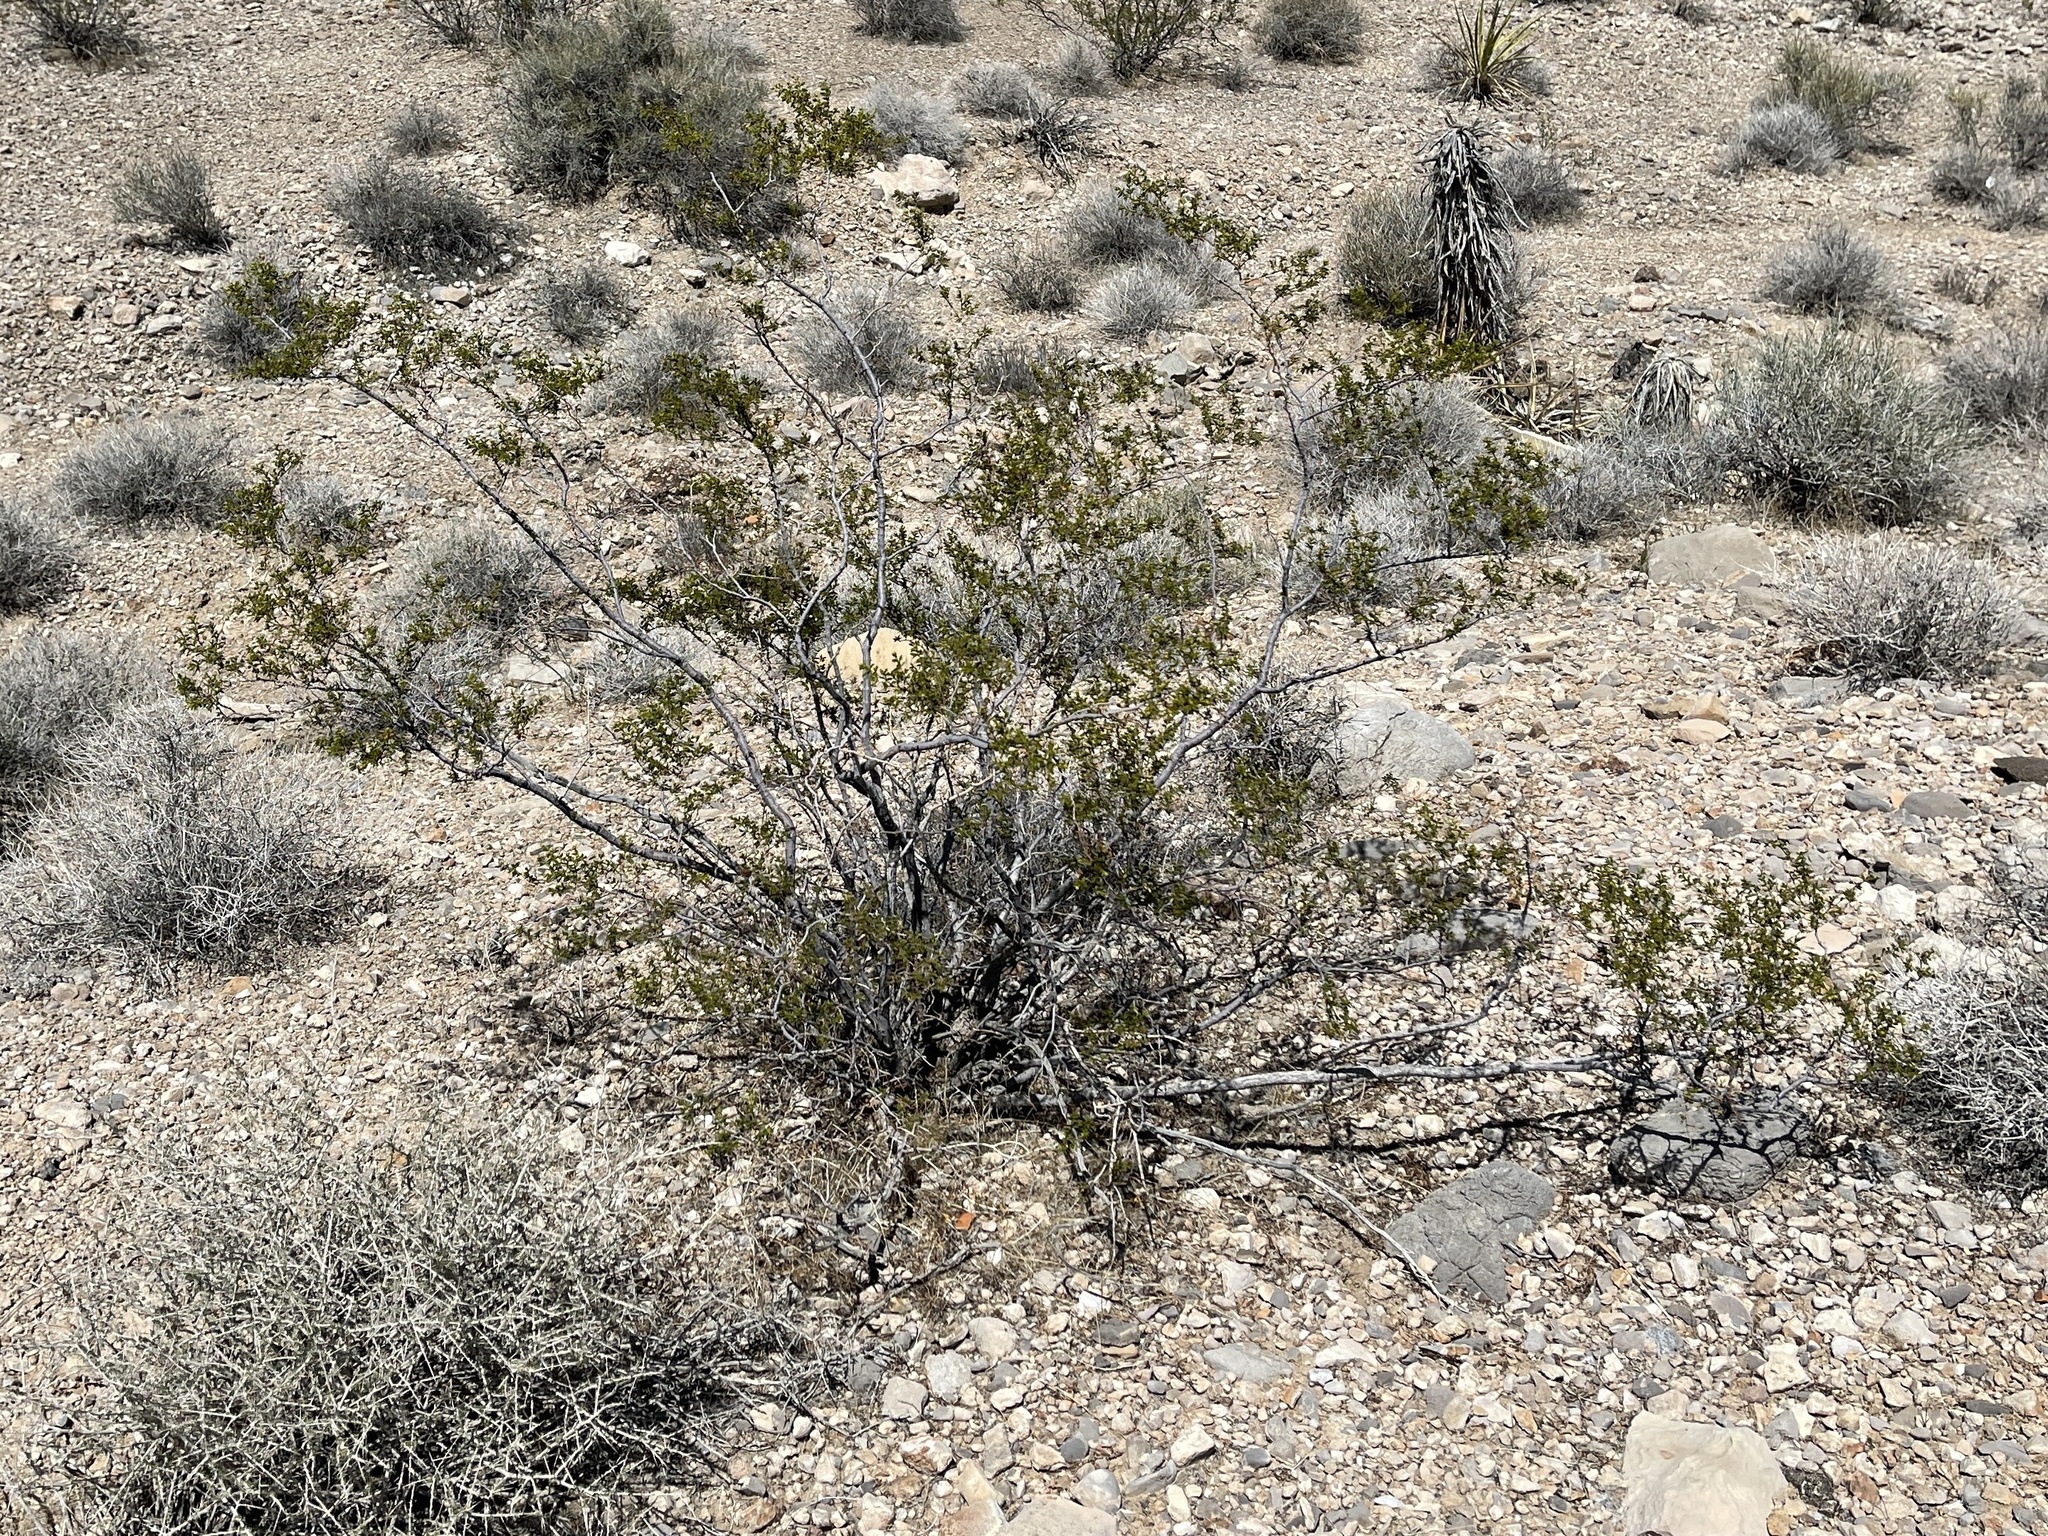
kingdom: Plantae
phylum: Tracheophyta
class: Magnoliopsida
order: Zygophyllales
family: Zygophyllaceae
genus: Larrea
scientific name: Larrea tridentata
